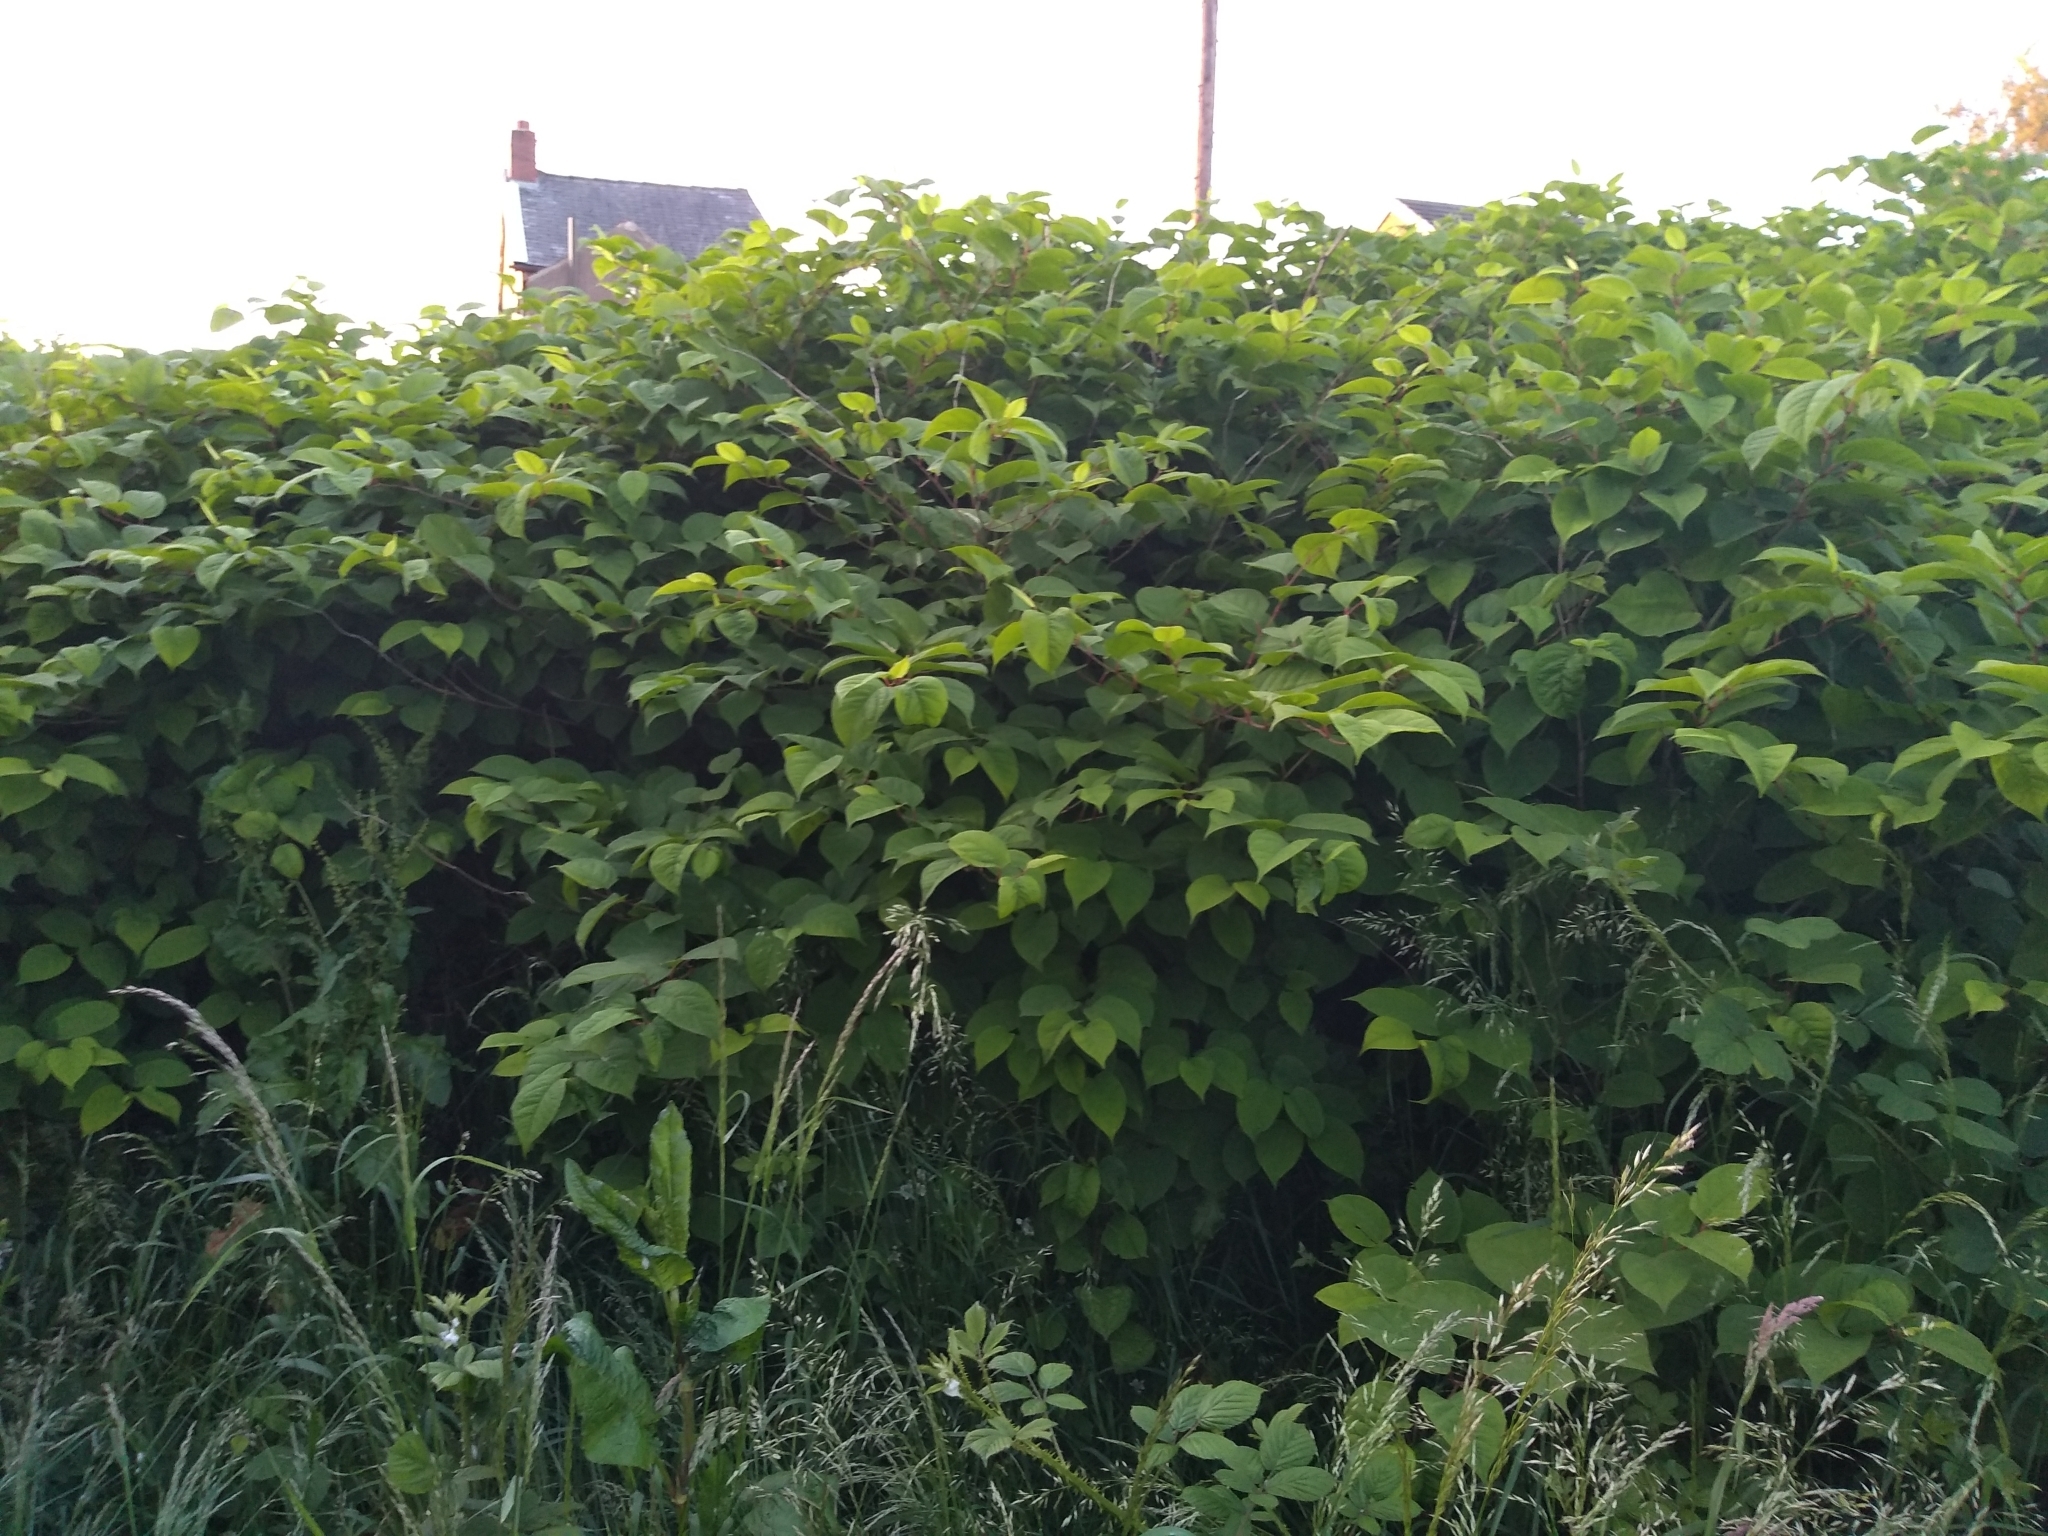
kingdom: Plantae
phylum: Tracheophyta
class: Magnoliopsida
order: Caryophyllales
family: Polygonaceae
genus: Reynoutria
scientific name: Reynoutria japonica
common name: Japanese knotweed
